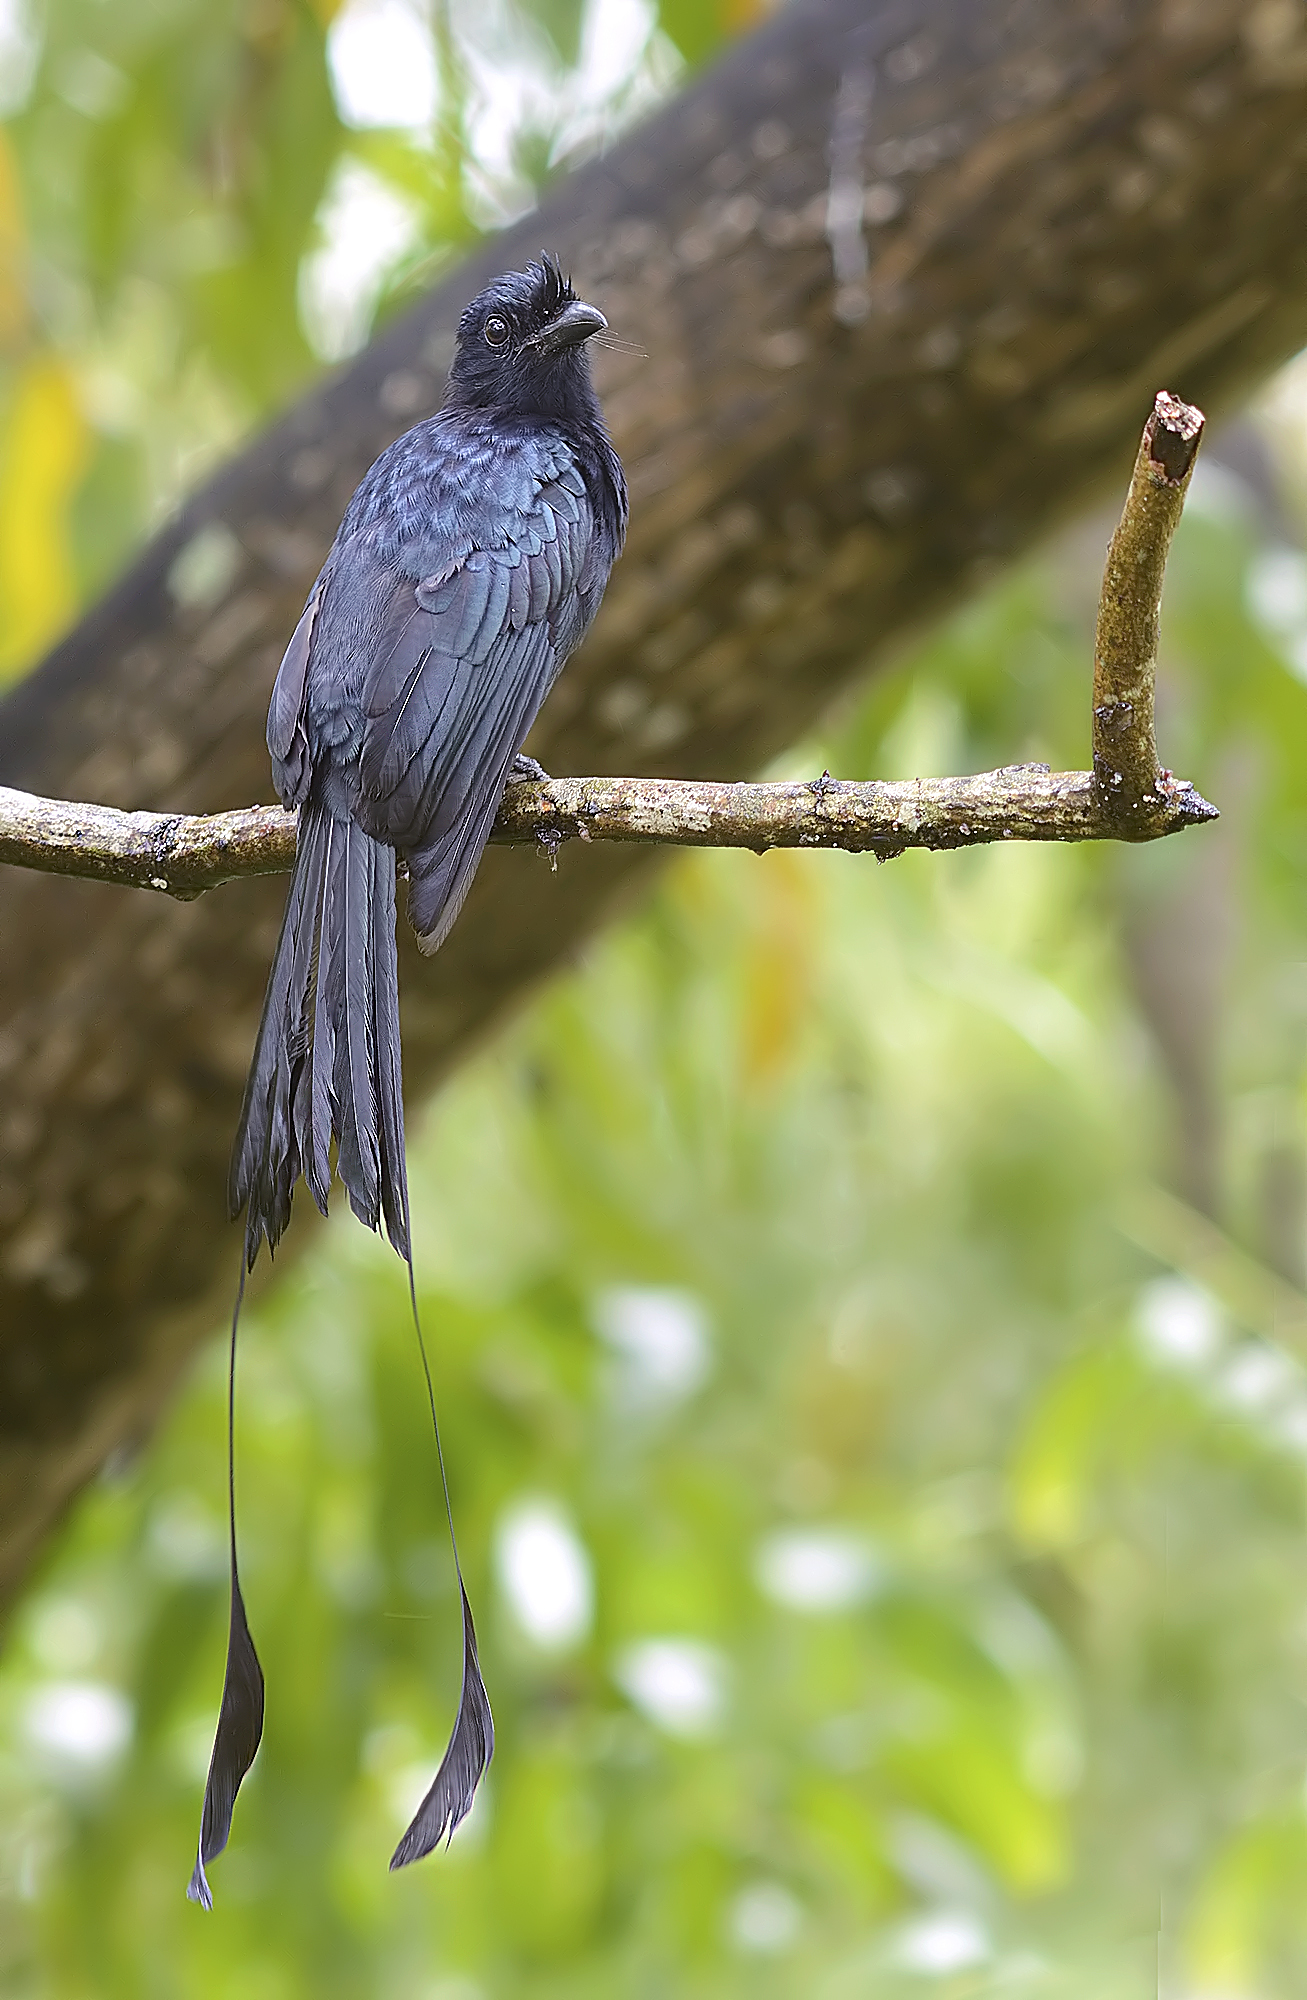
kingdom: Animalia
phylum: Chordata
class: Aves
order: Passeriformes
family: Dicruridae
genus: Dicrurus
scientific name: Dicrurus paradiseus
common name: Greater racket-tailed drongo
